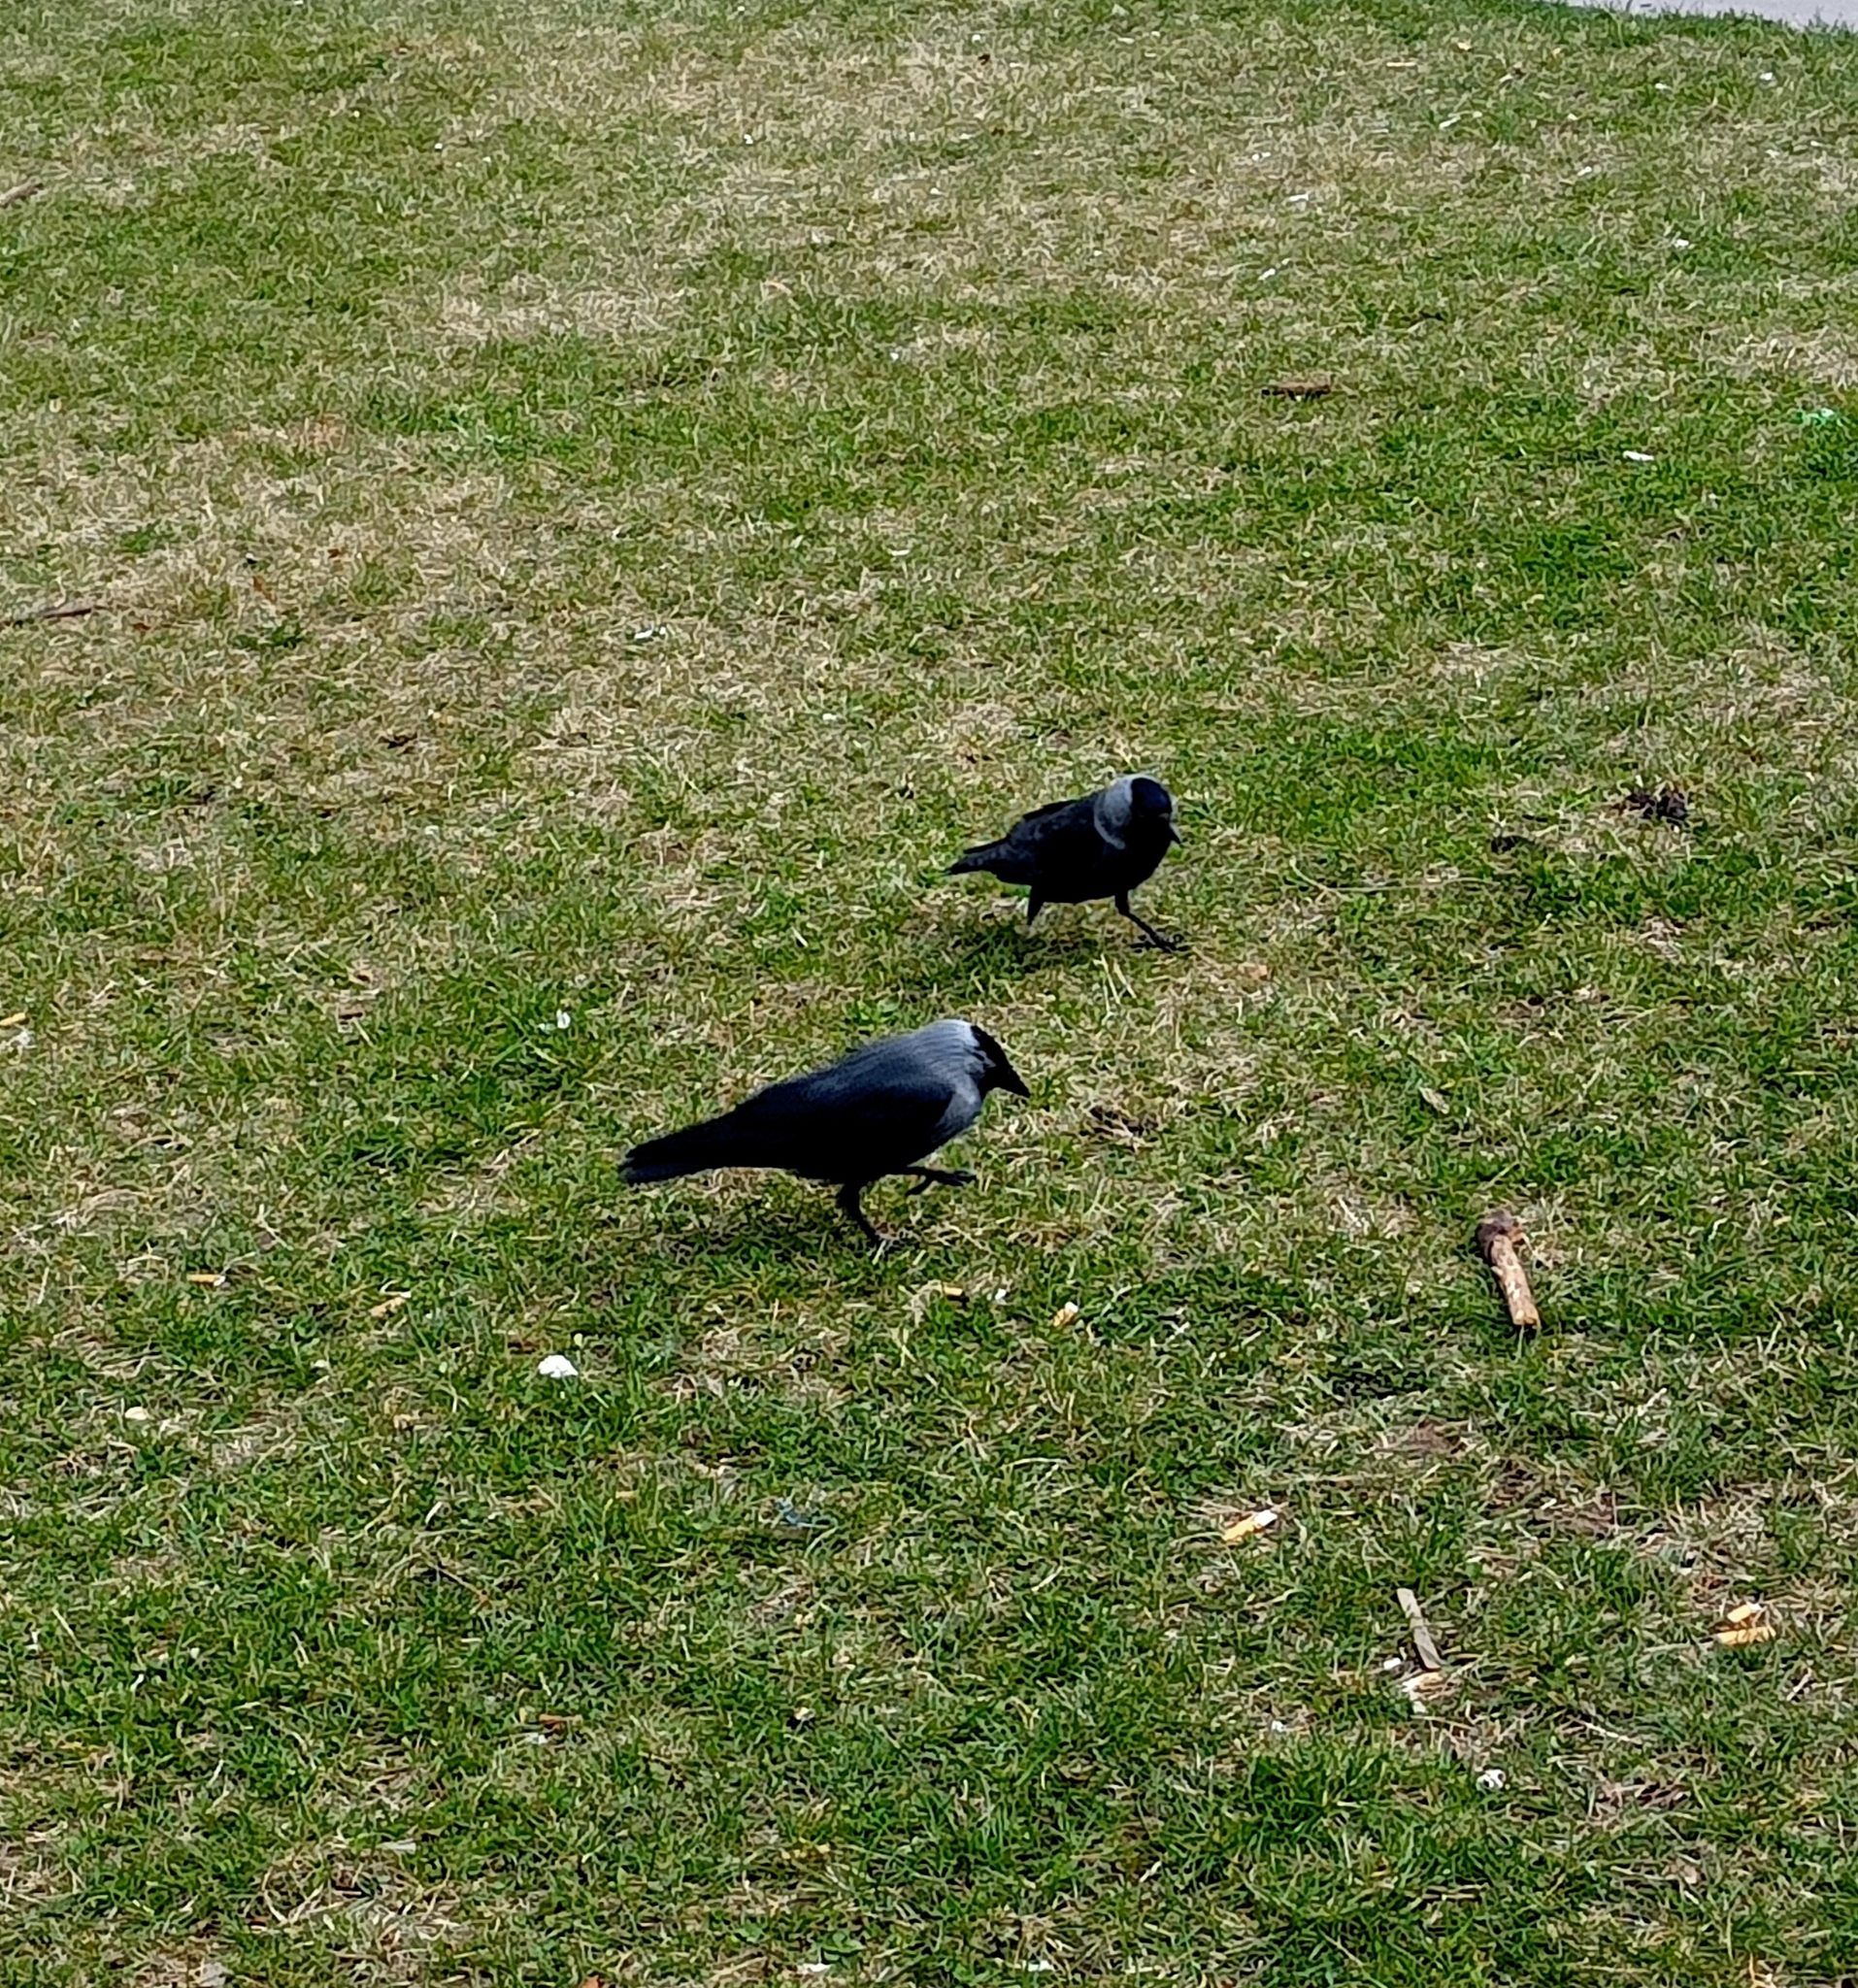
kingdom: Animalia
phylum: Chordata
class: Aves
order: Passeriformes
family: Corvidae
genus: Coloeus
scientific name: Coloeus monedula
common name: Western jackdaw
